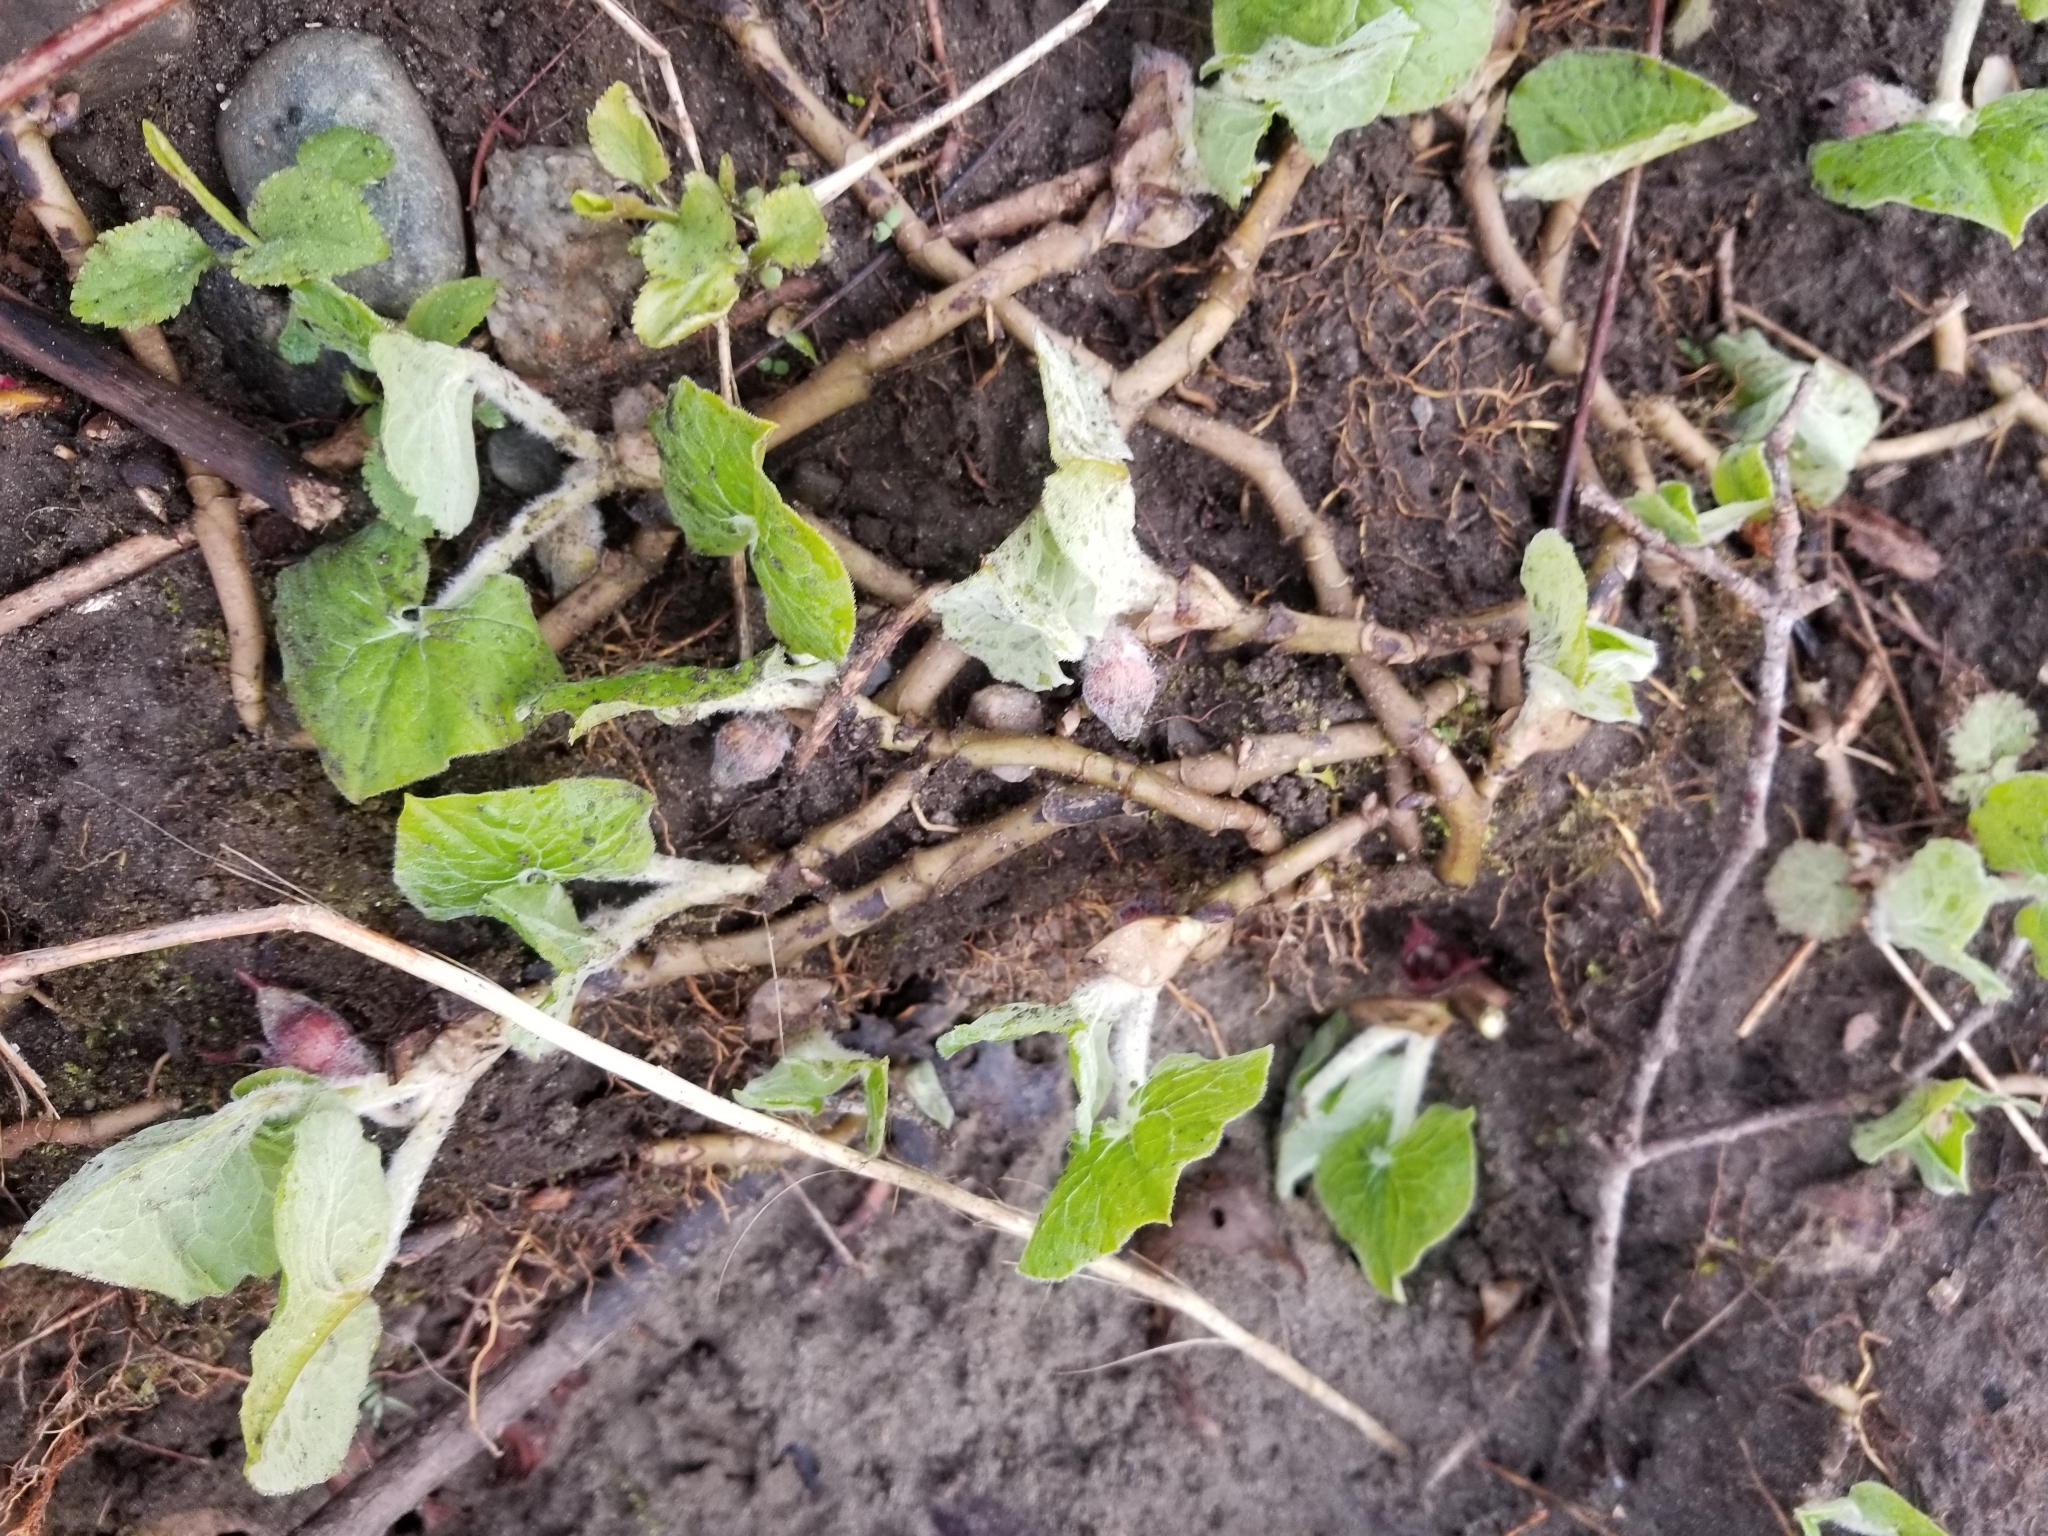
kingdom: Plantae
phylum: Tracheophyta
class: Magnoliopsida
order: Piperales
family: Aristolochiaceae
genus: Asarum
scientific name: Asarum canadense
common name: Wild ginger
